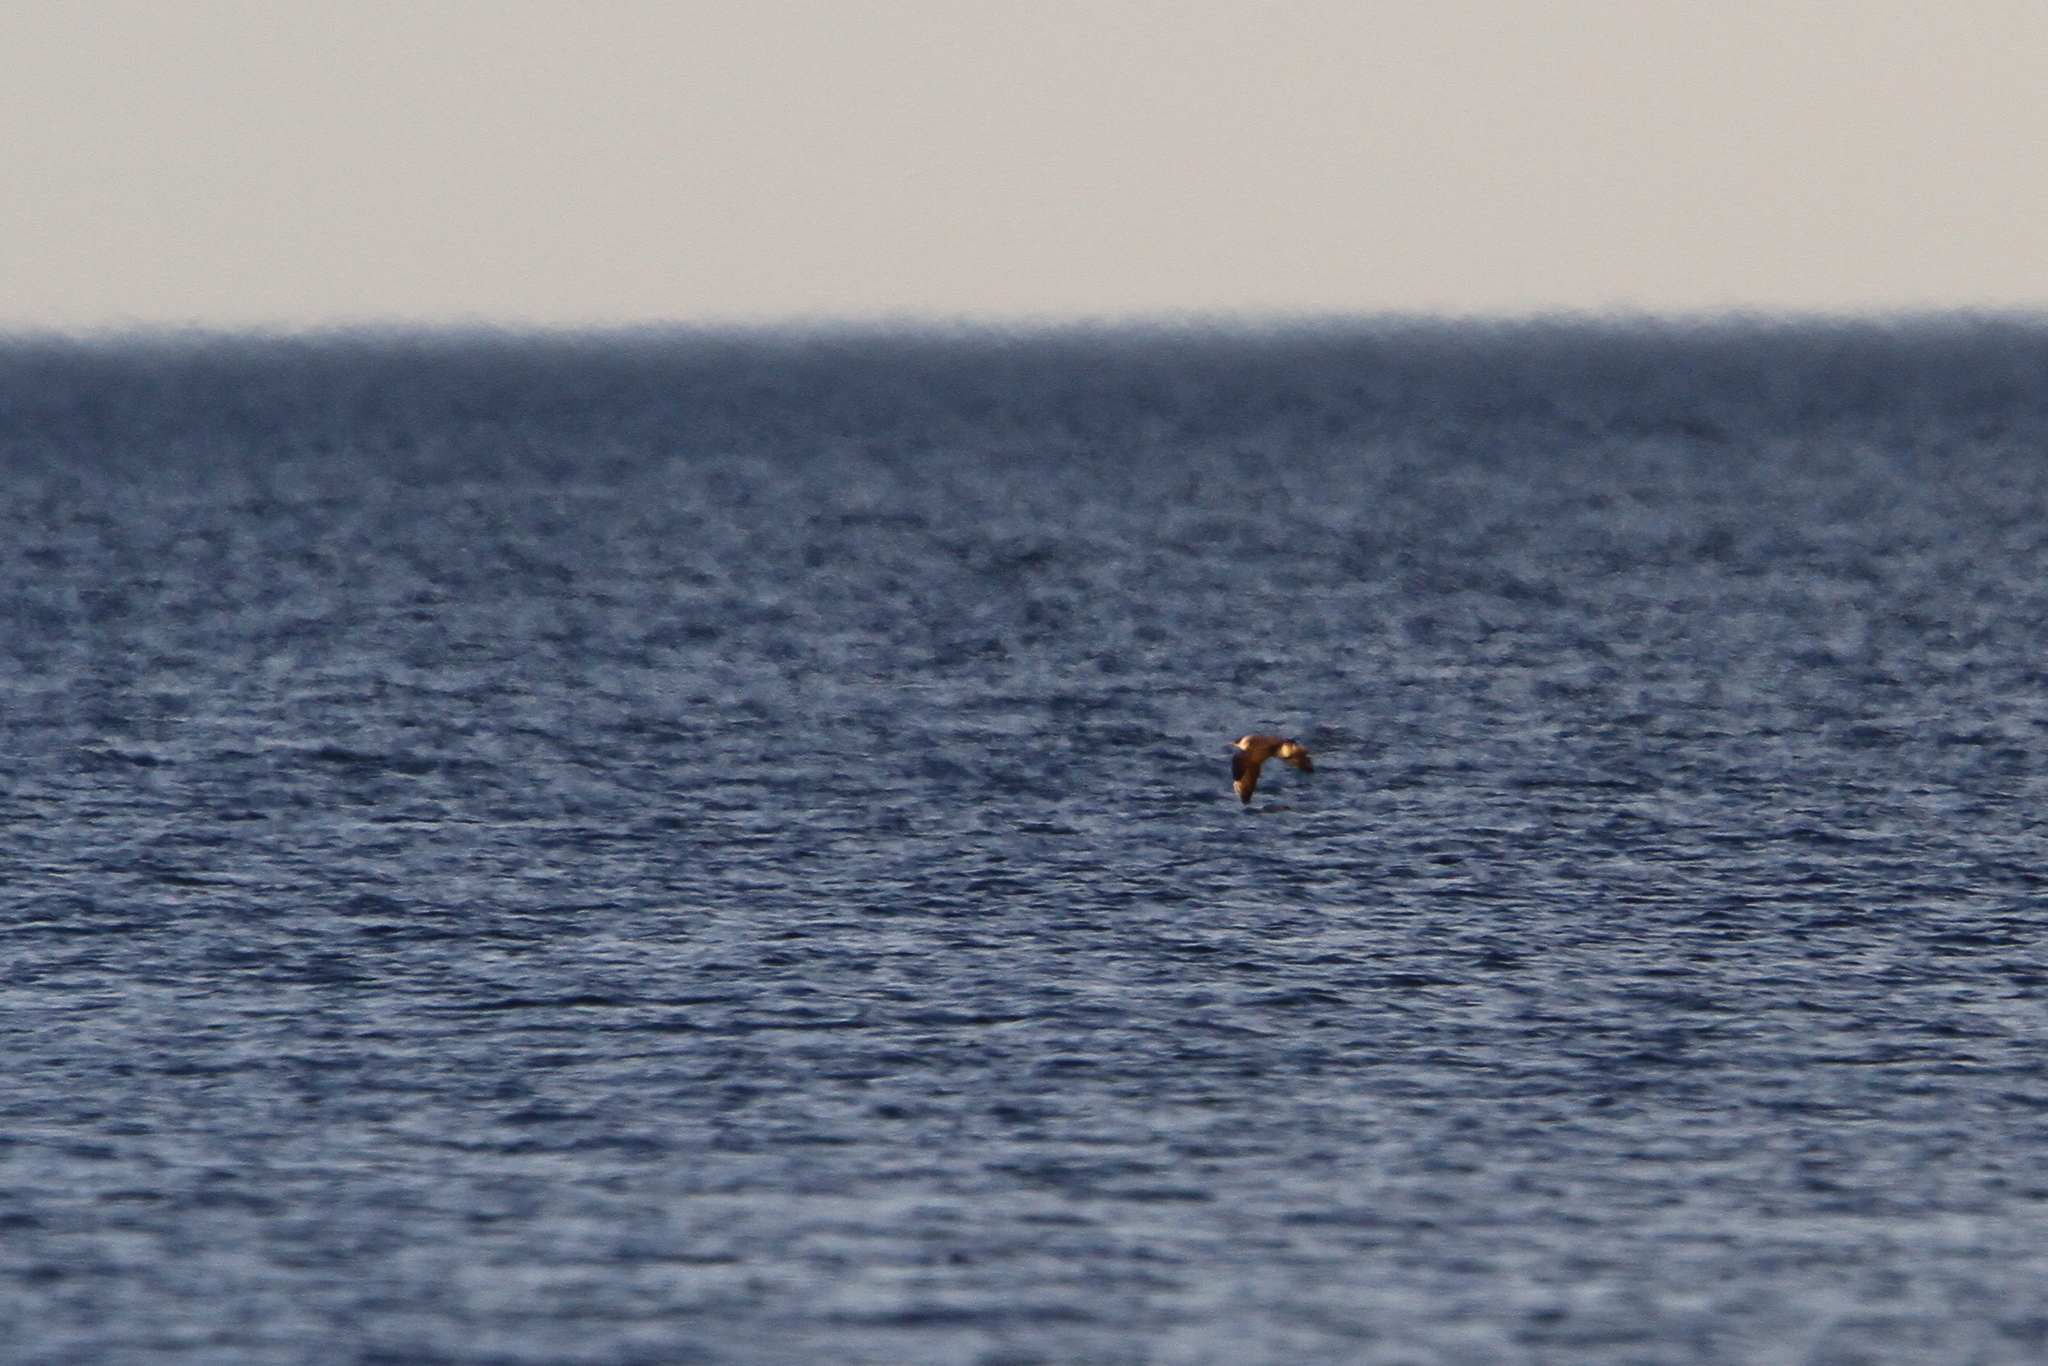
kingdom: Animalia
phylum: Chordata
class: Aves
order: Charadriiformes
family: Stercorariidae
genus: Stercorarius
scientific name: Stercorarius parasiticus
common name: Parasitic jaeger
